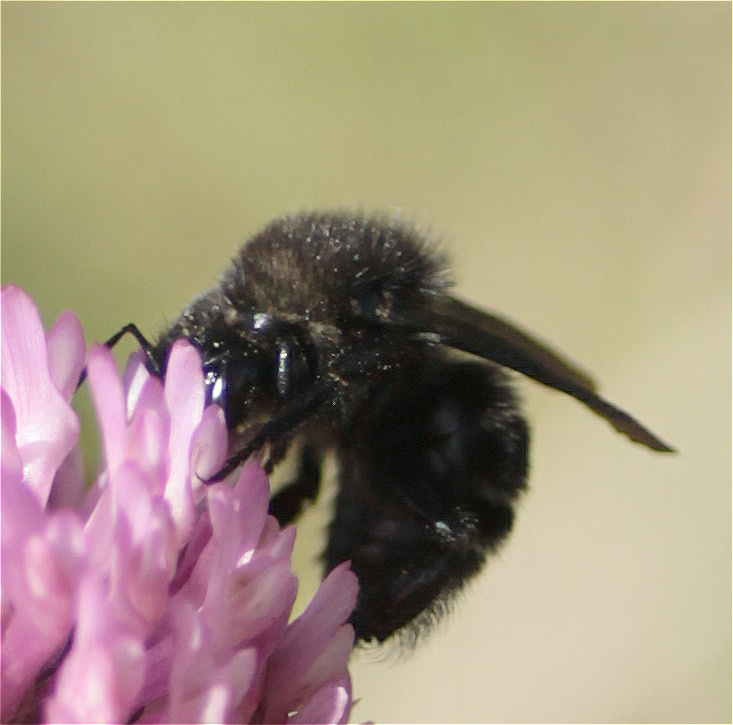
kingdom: Animalia
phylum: Arthropoda
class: Insecta
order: Hymenoptera
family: Apidae
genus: Bombus
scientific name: Bombus pauloensis
